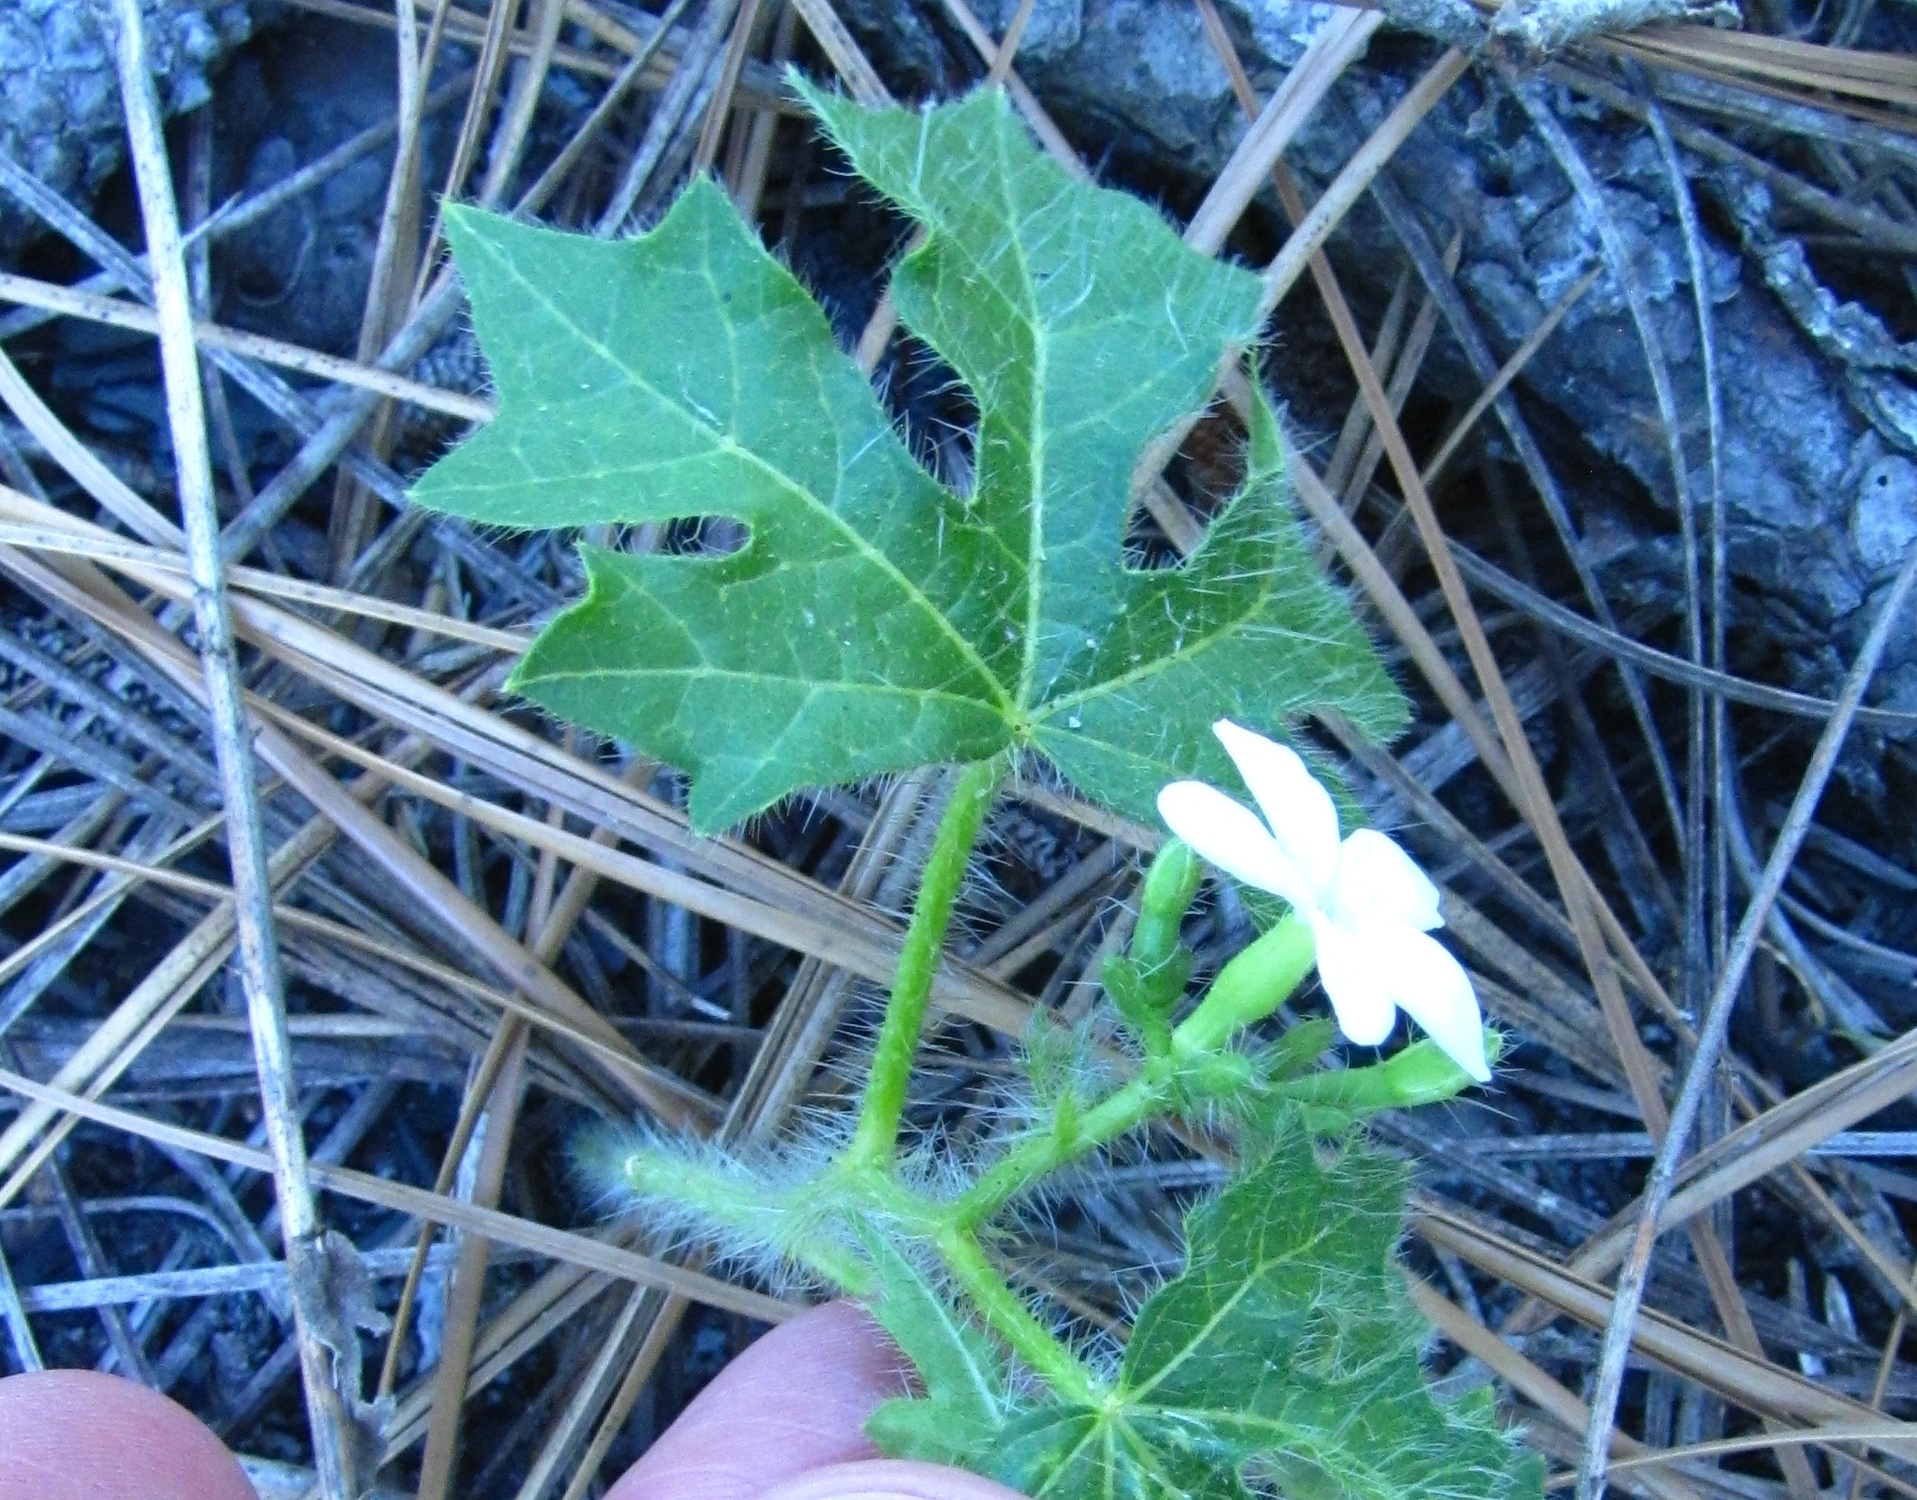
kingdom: Plantae
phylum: Tracheophyta
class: Magnoliopsida
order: Malpighiales
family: Euphorbiaceae
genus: Cnidoscolus
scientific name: Cnidoscolus stimulosus
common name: Bull-nettle
